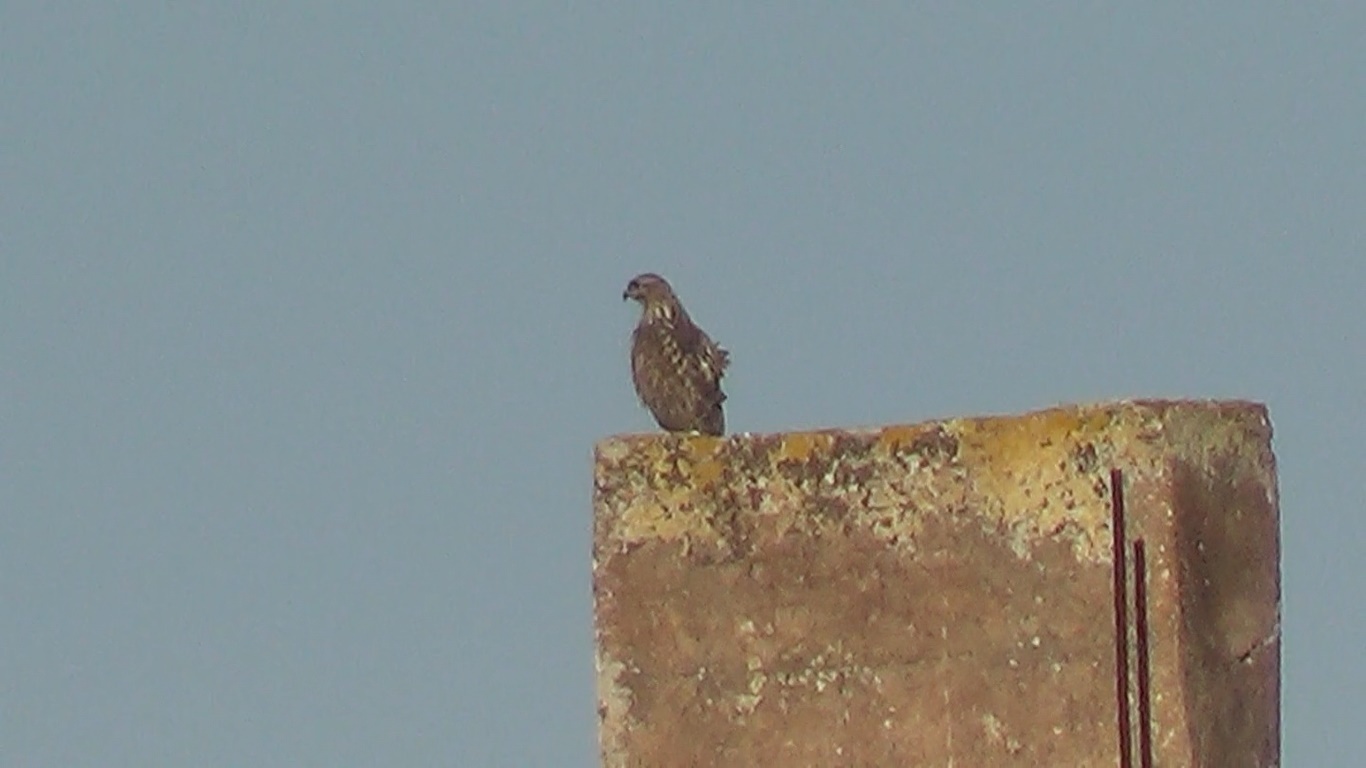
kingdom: Animalia
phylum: Chordata
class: Aves
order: Accipitriformes
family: Accipitridae
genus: Buteo
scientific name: Buteo buteo
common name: Common buzzard
